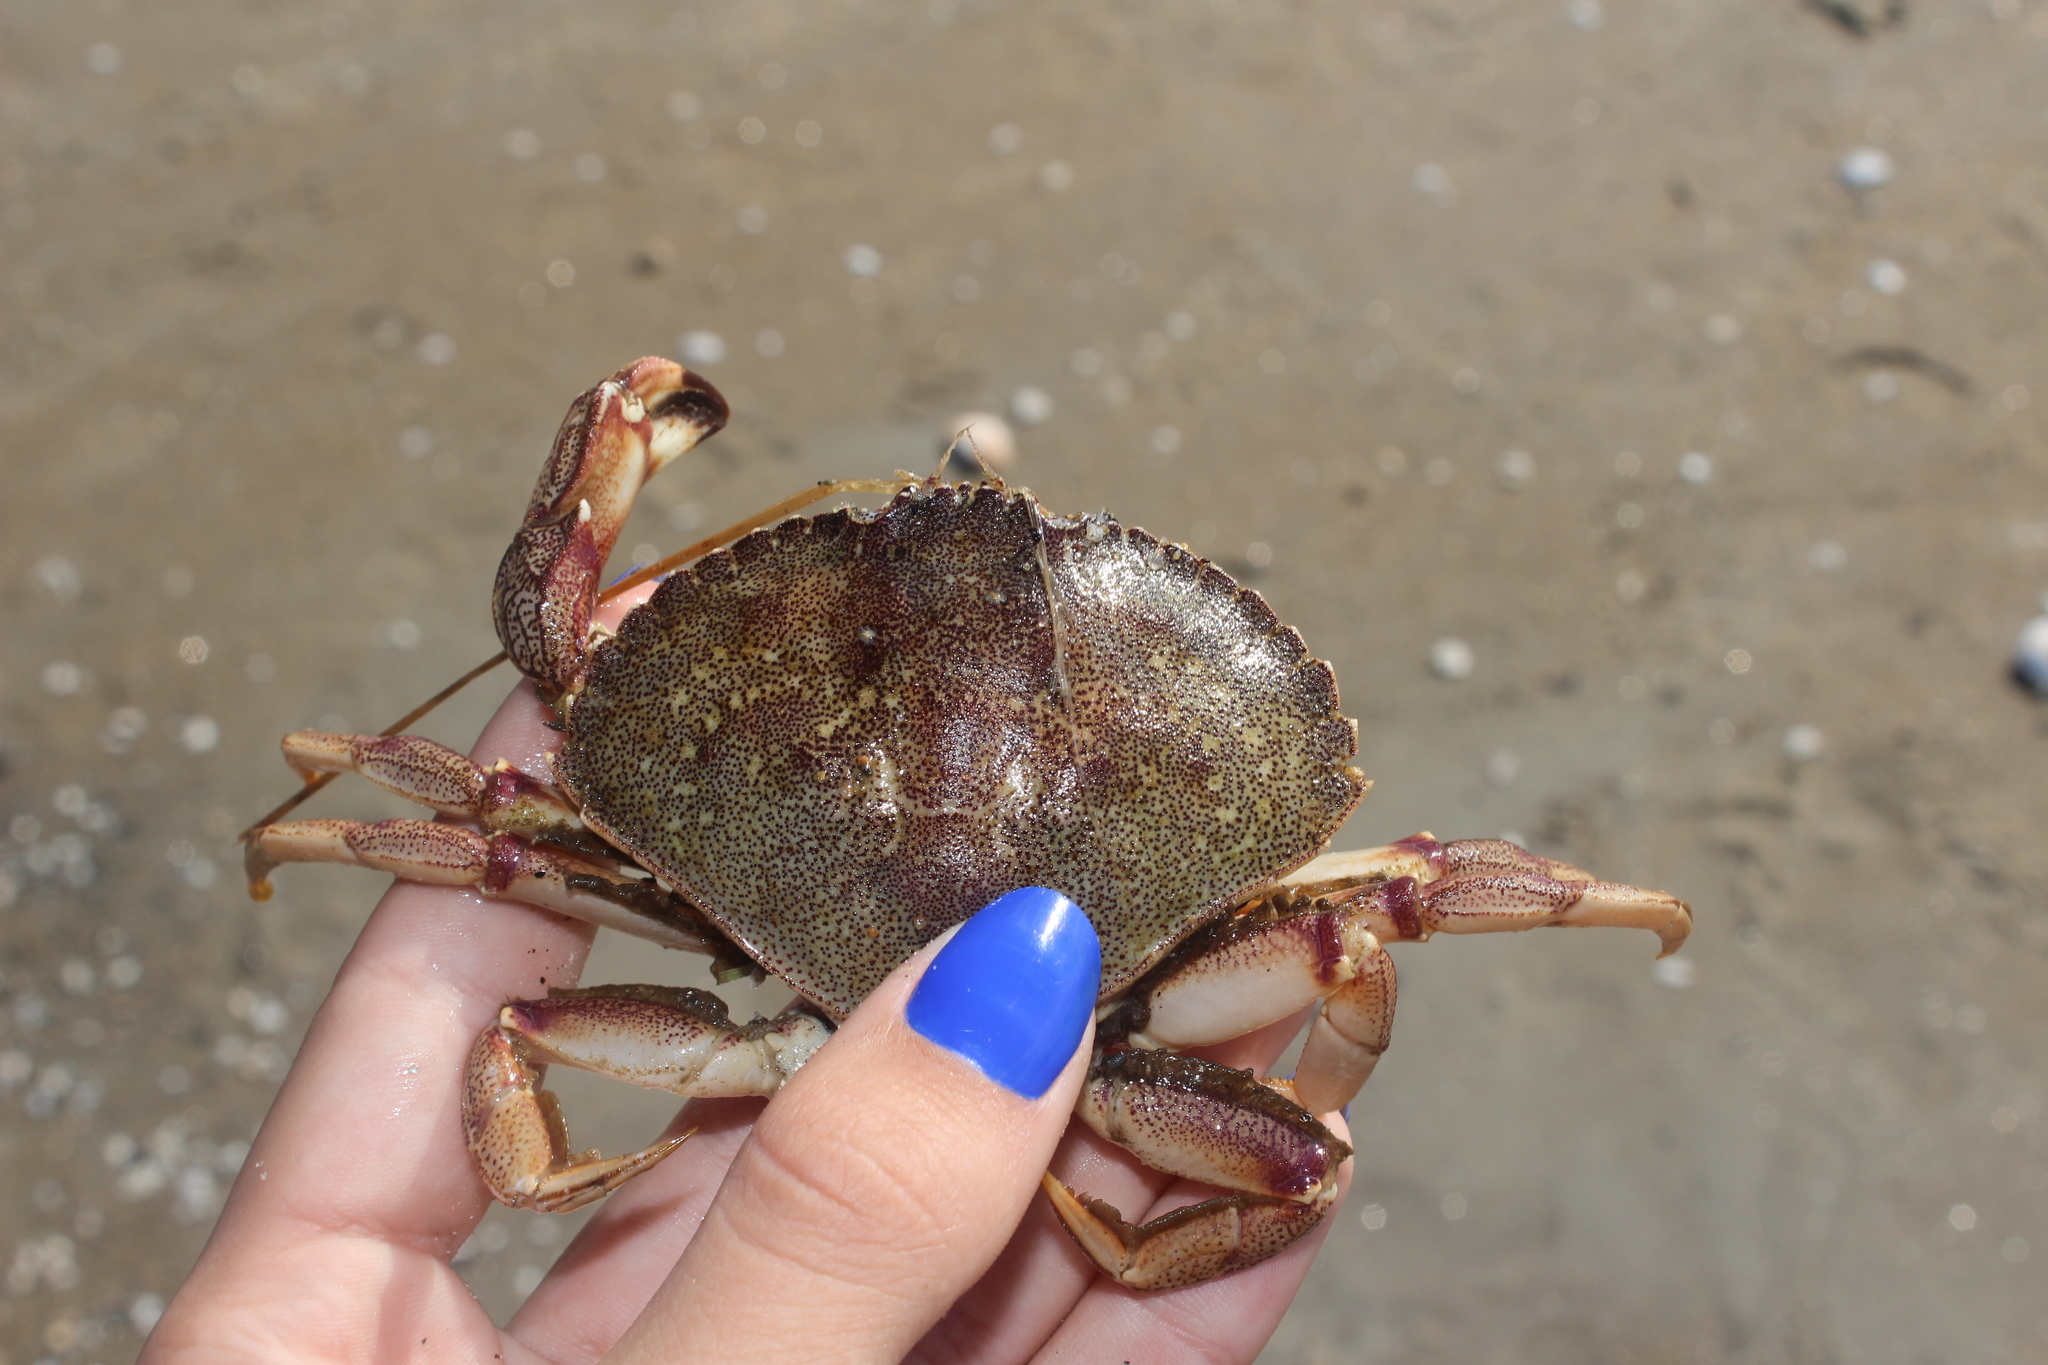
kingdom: Animalia
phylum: Arthropoda
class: Malacostraca
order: Decapoda
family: Cancridae
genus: Cancer
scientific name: Cancer irroratus
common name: Atlantic rock crab
